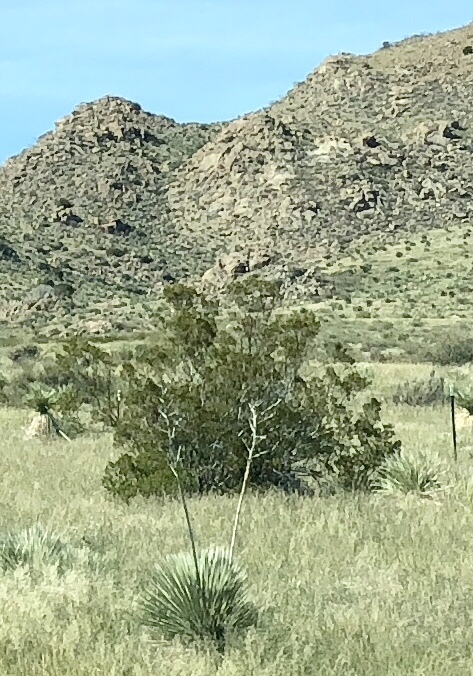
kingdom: Plantae
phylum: Tracheophyta
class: Magnoliopsida
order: Zygophyllales
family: Zygophyllaceae
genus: Larrea
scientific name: Larrea tridentata
